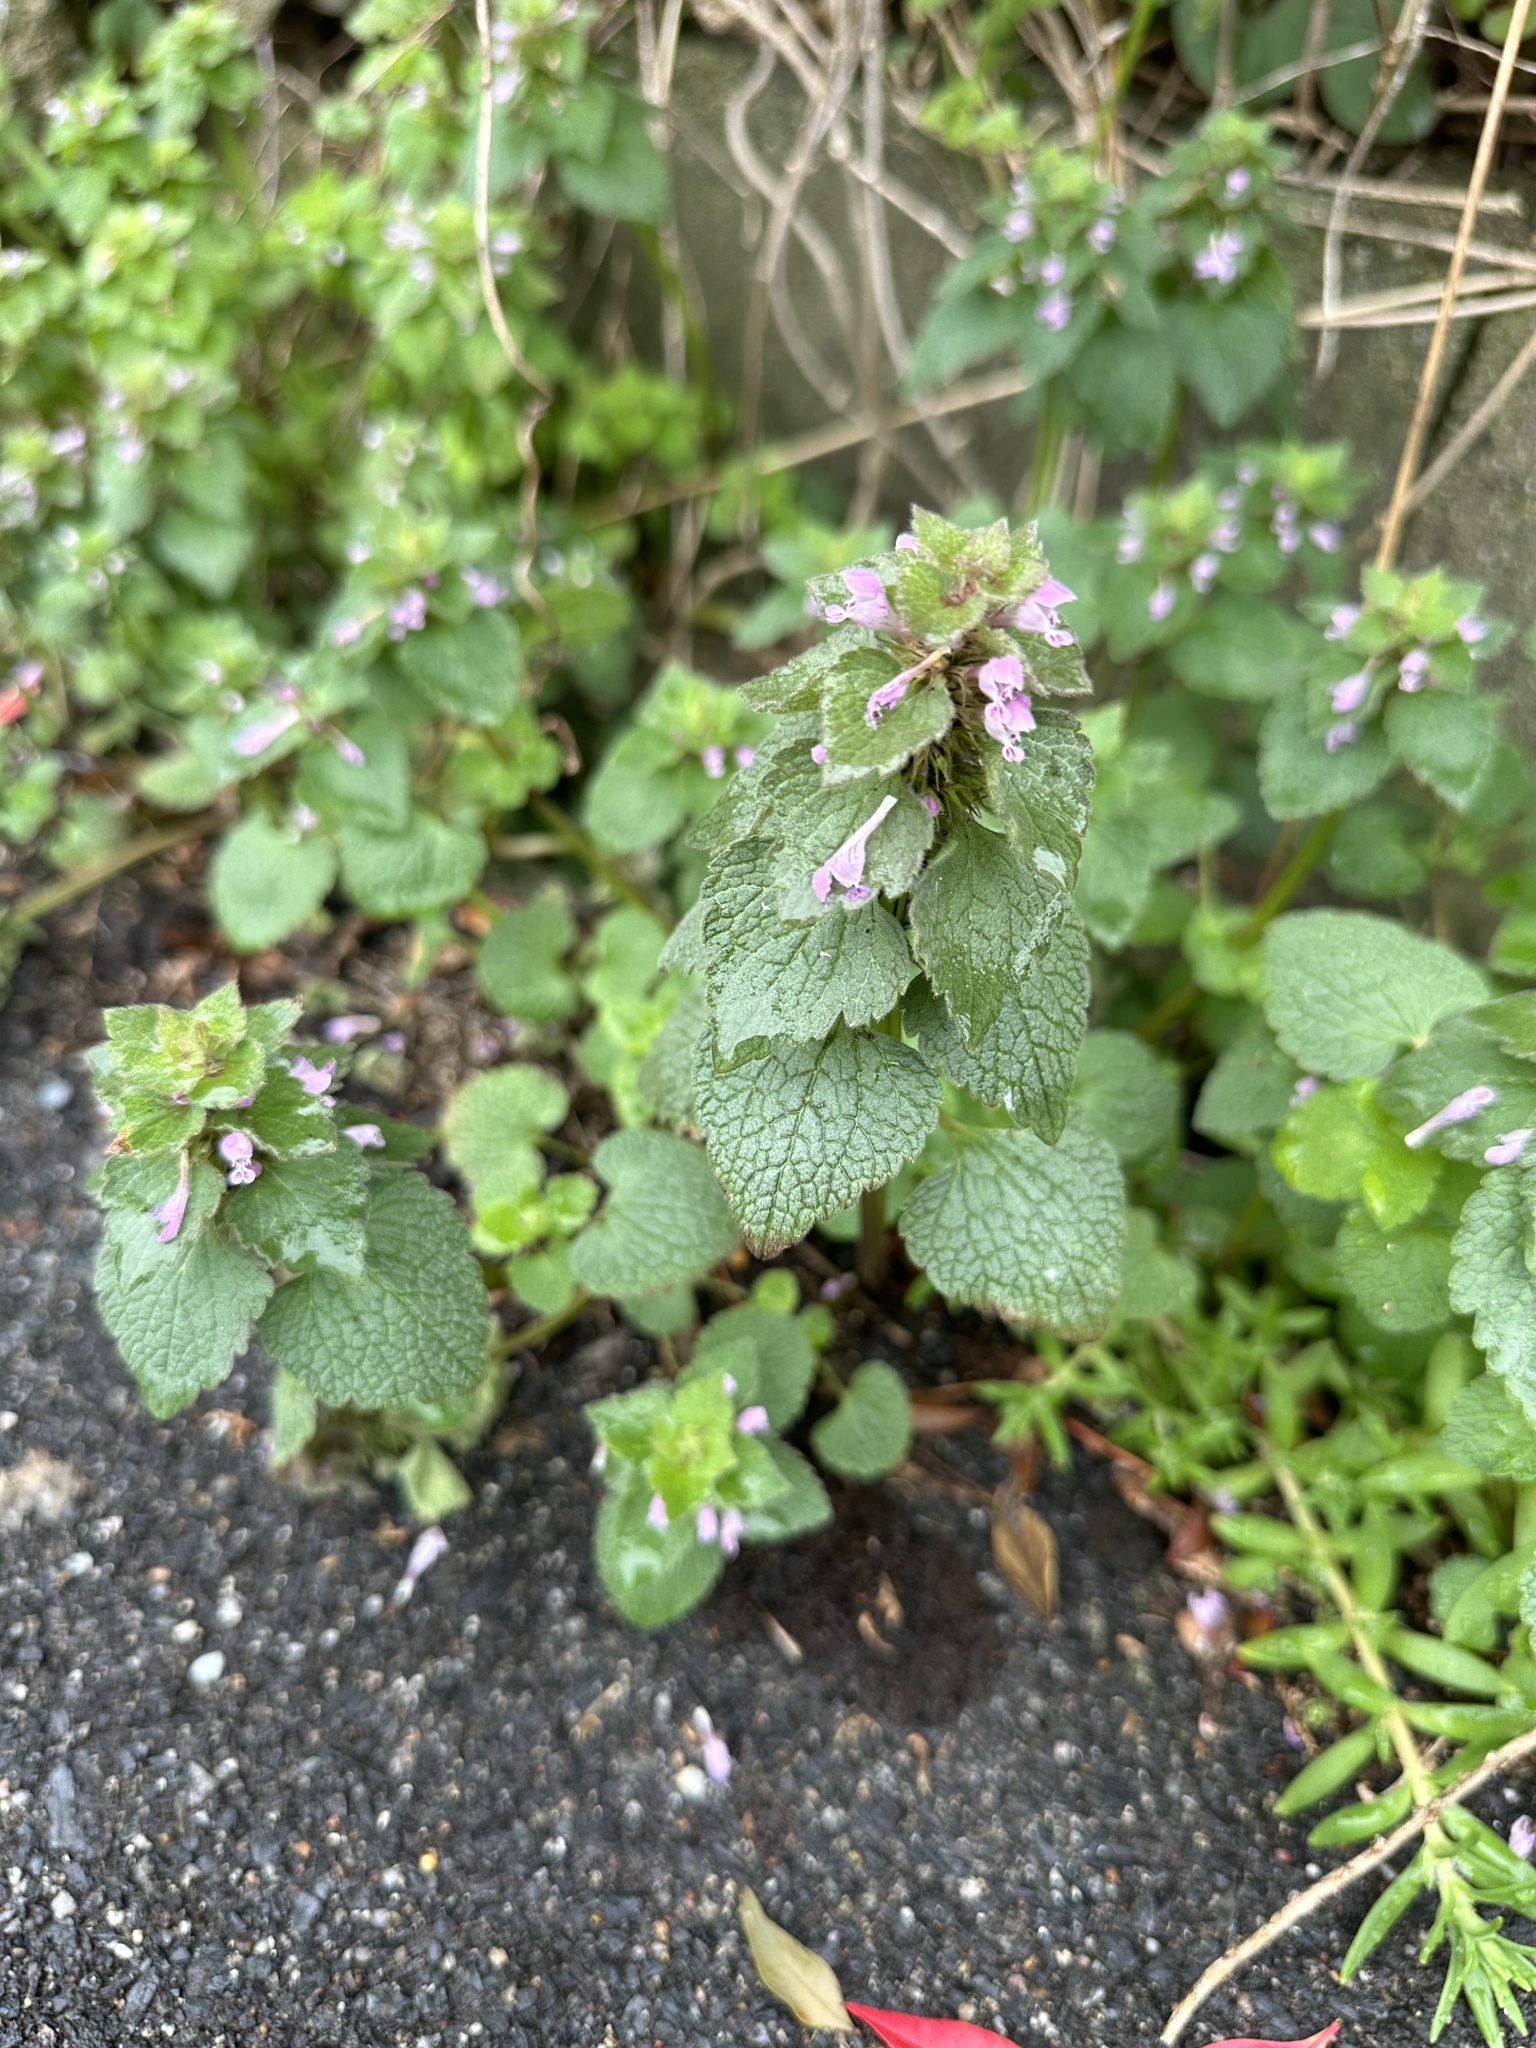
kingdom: Plantae
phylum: Tracheophyta
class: Magnoliopsida
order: Lamiales
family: Lamiaceae
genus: Lamium
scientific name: Lamium purpureum
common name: Red dead-nettle
